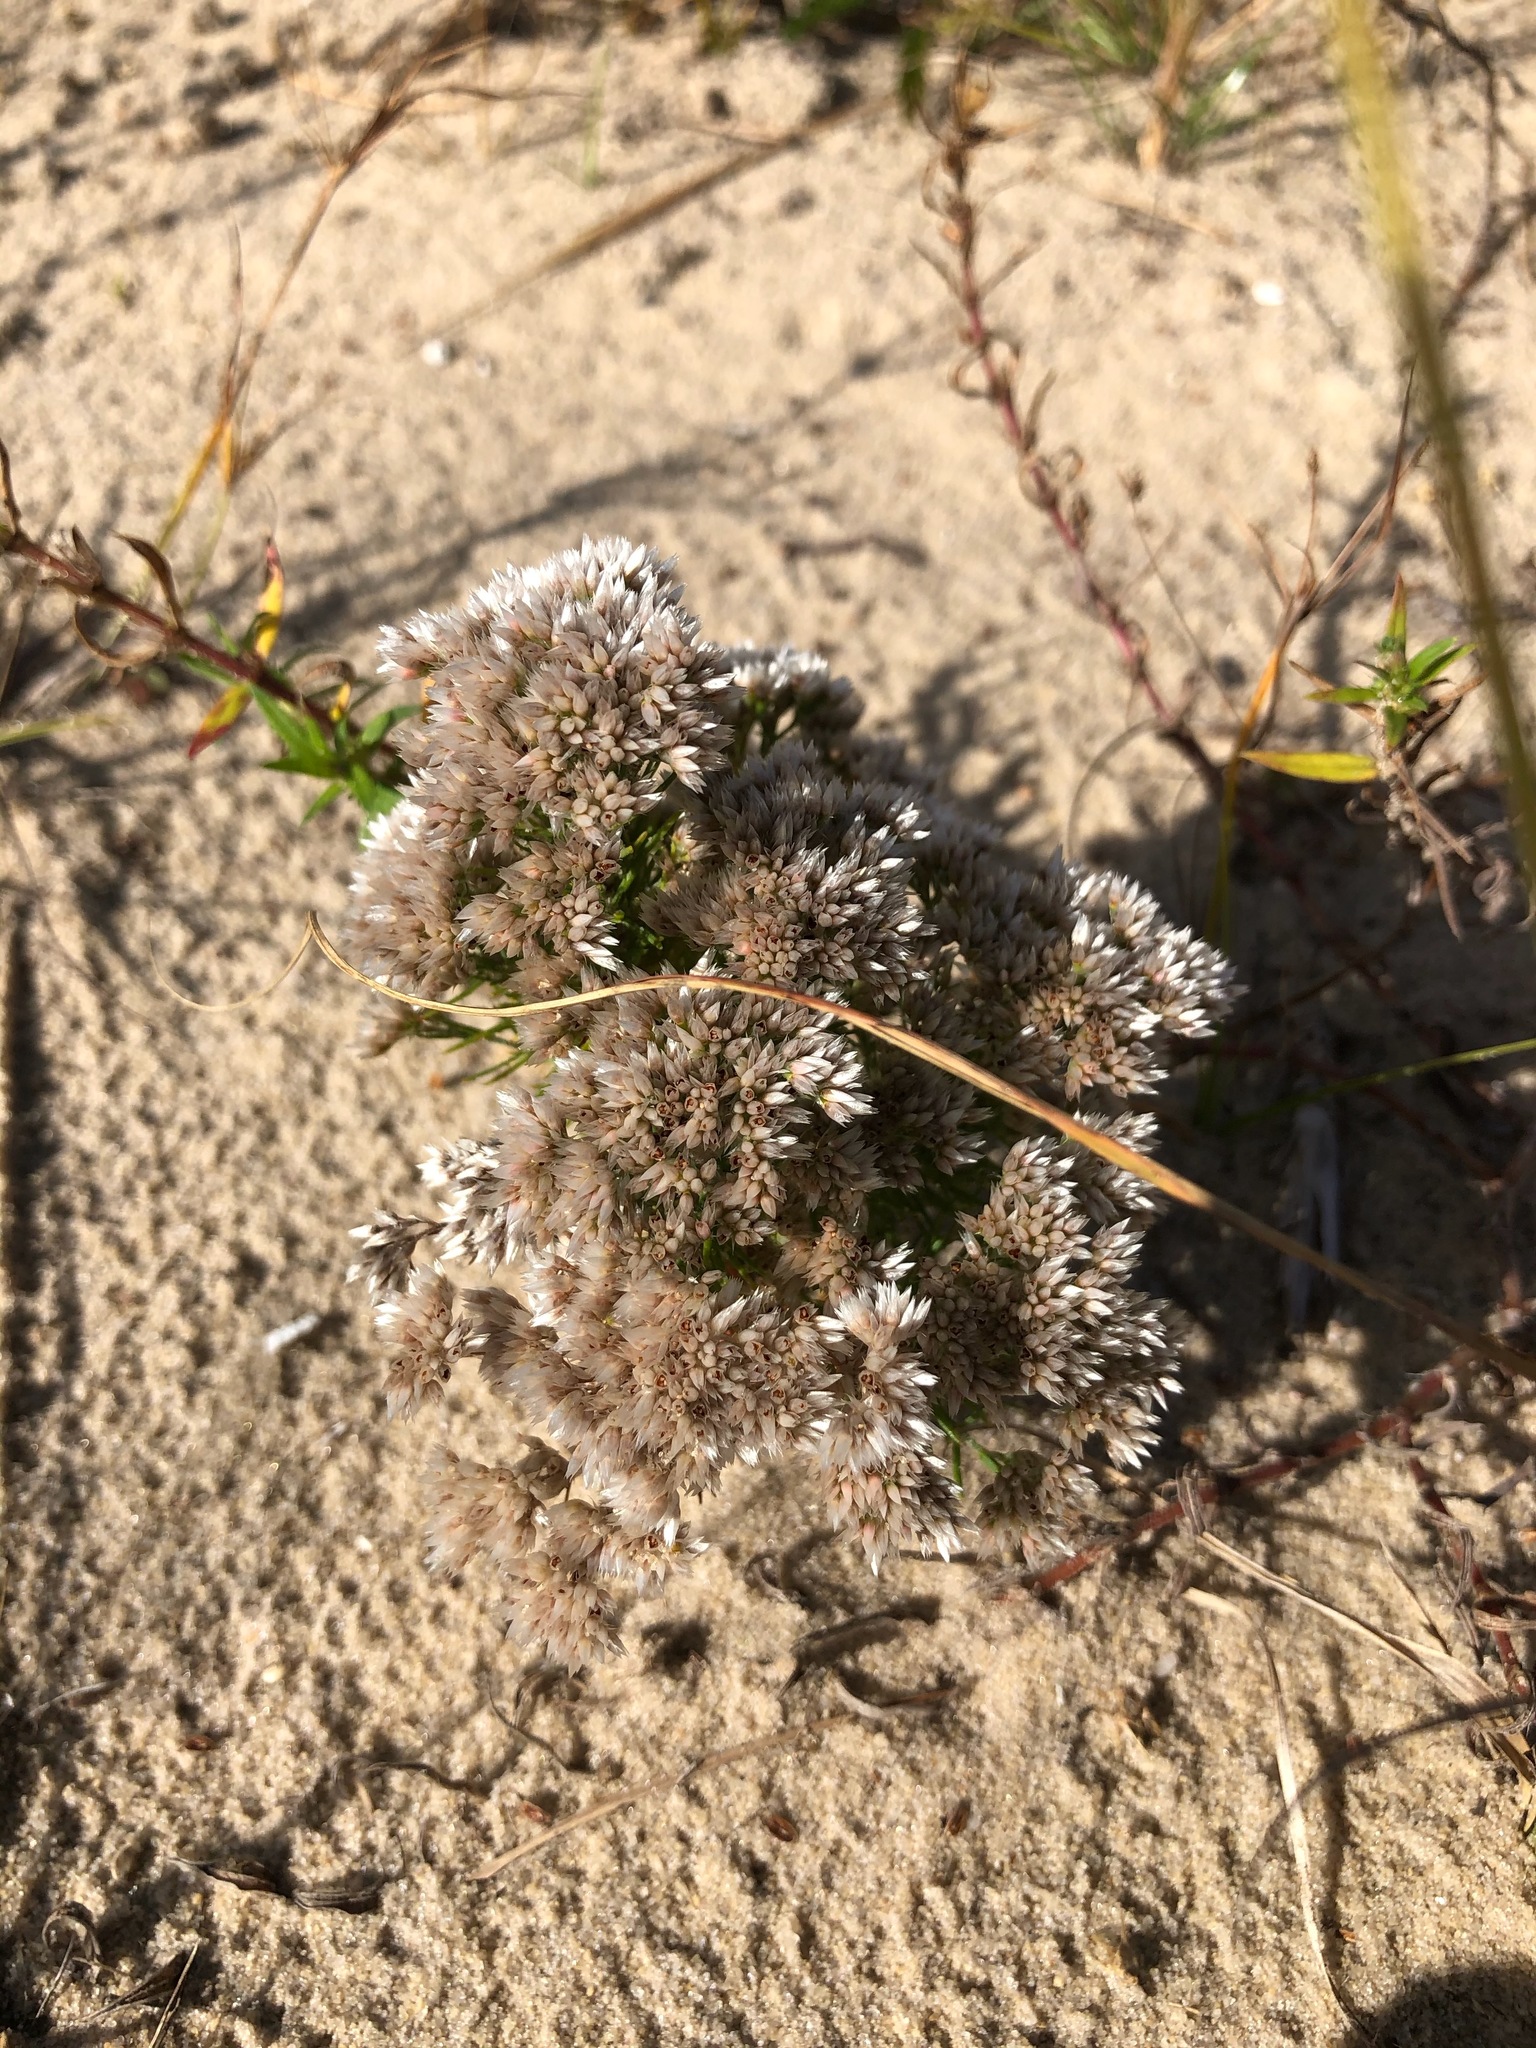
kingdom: Plantae
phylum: Tracheophyta
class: Magnoliopsida
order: Caryophyllales
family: Caryophyllaceae
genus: Polycarpaea
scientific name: Polycarpaea corymbosa
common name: Oldman's cap
